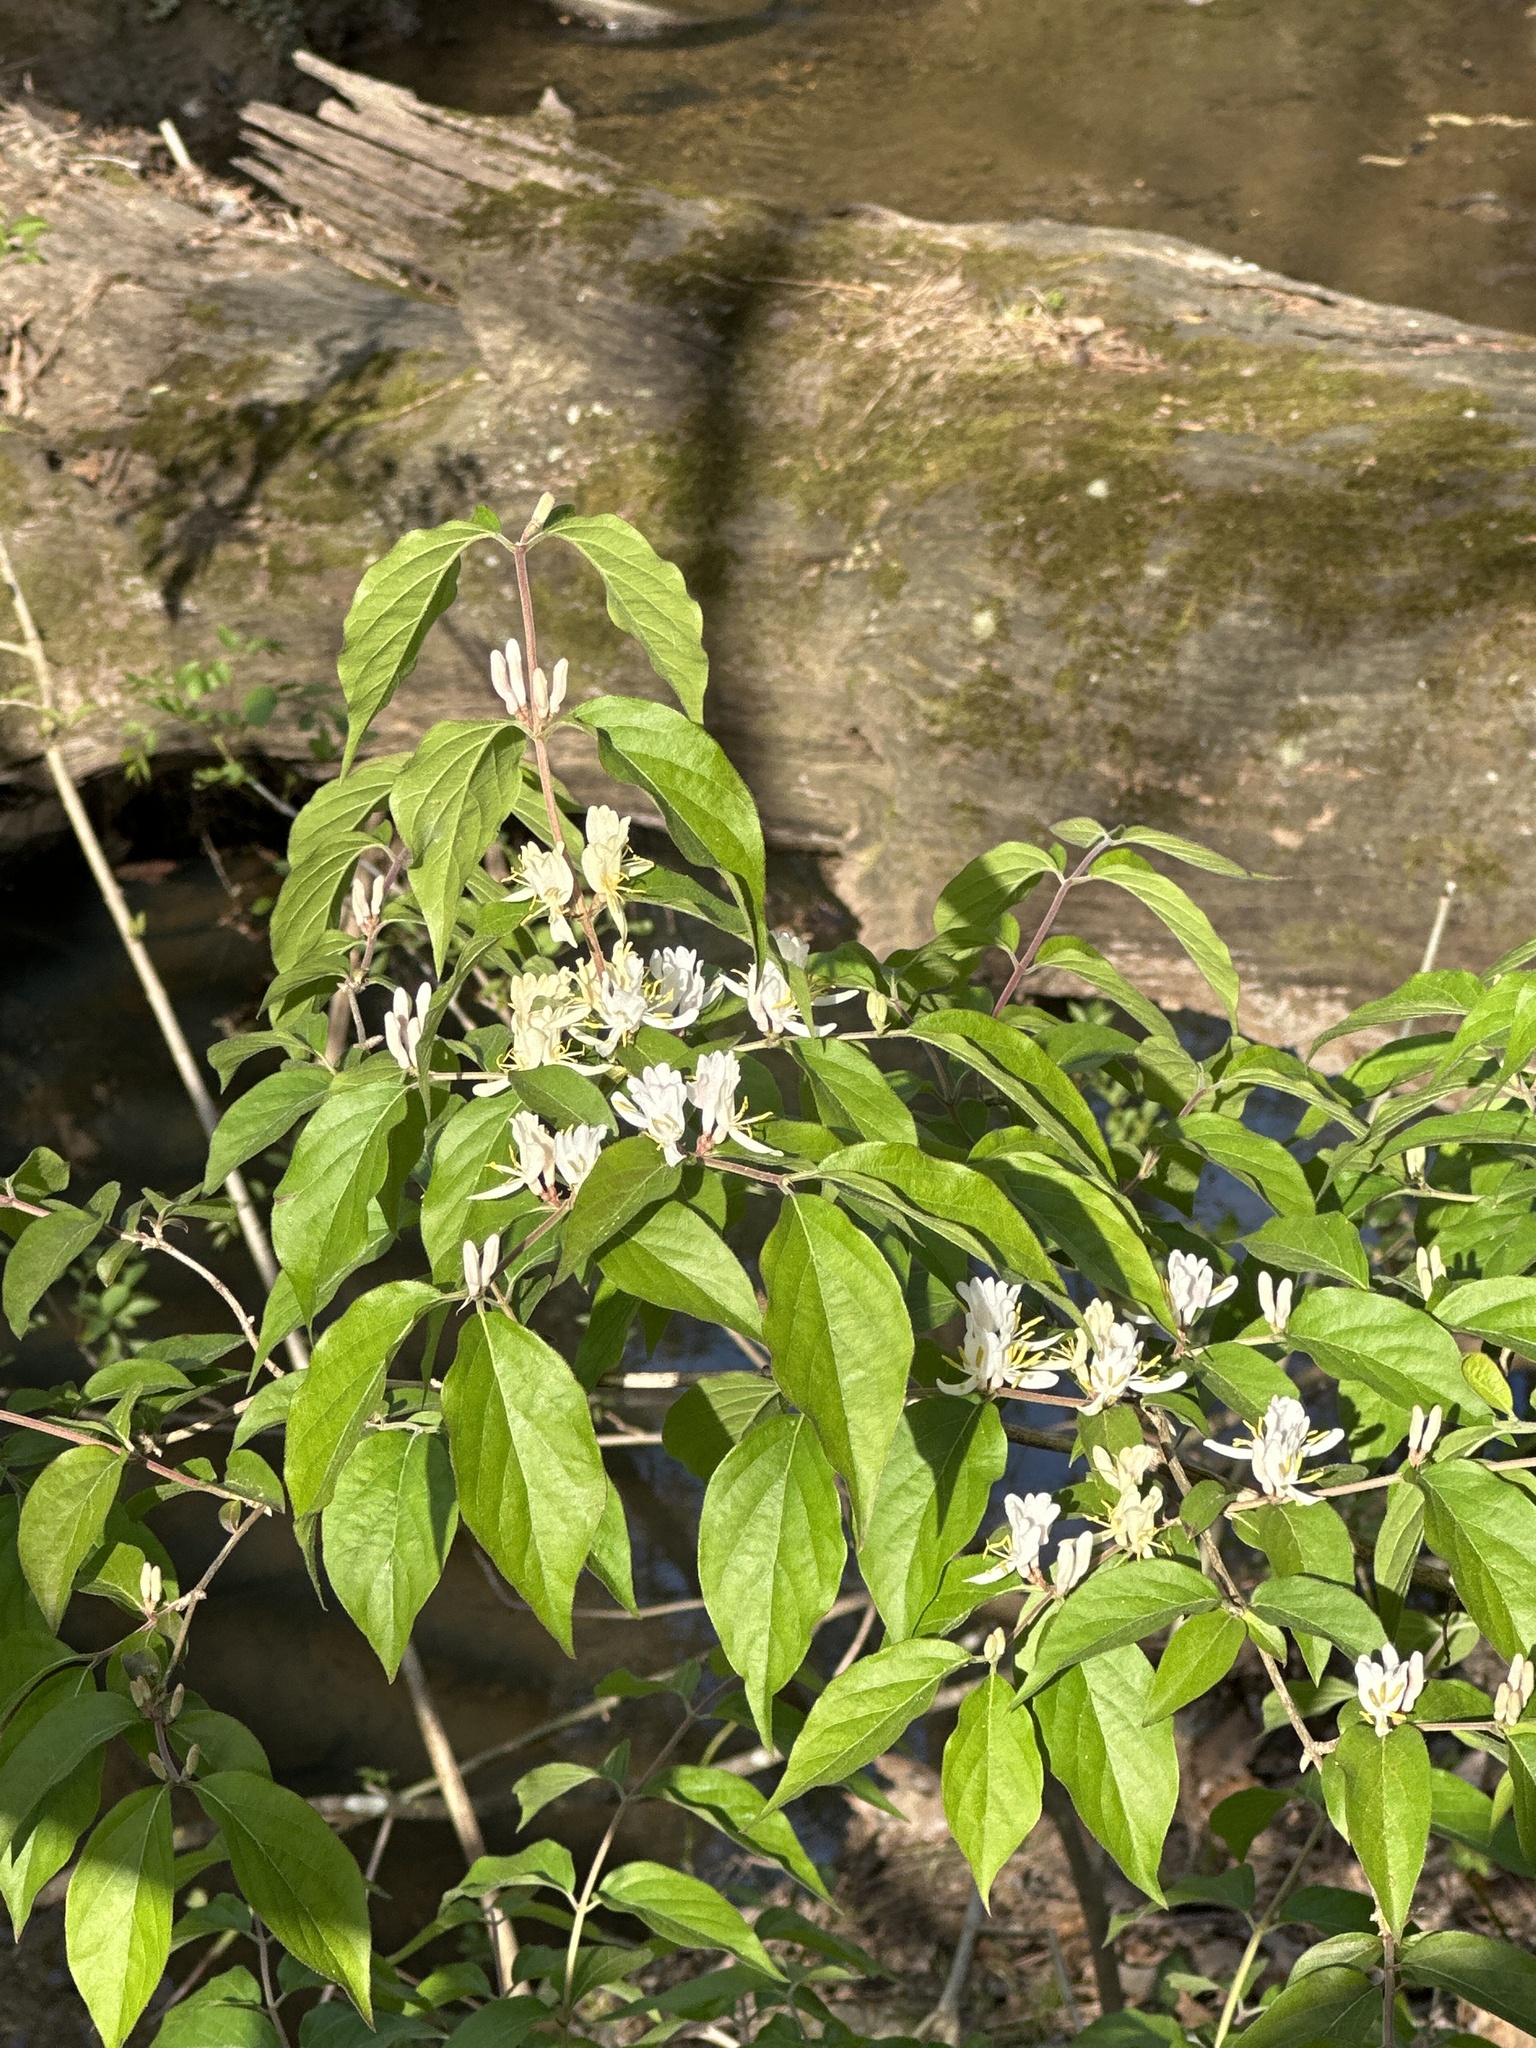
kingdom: Plantae
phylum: Tracheophyta
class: Magnoliopsida
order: Dipsacales
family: Caprifoliaceae
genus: Lonicera
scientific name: Lonicera maackii
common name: Amur honeysuckle
